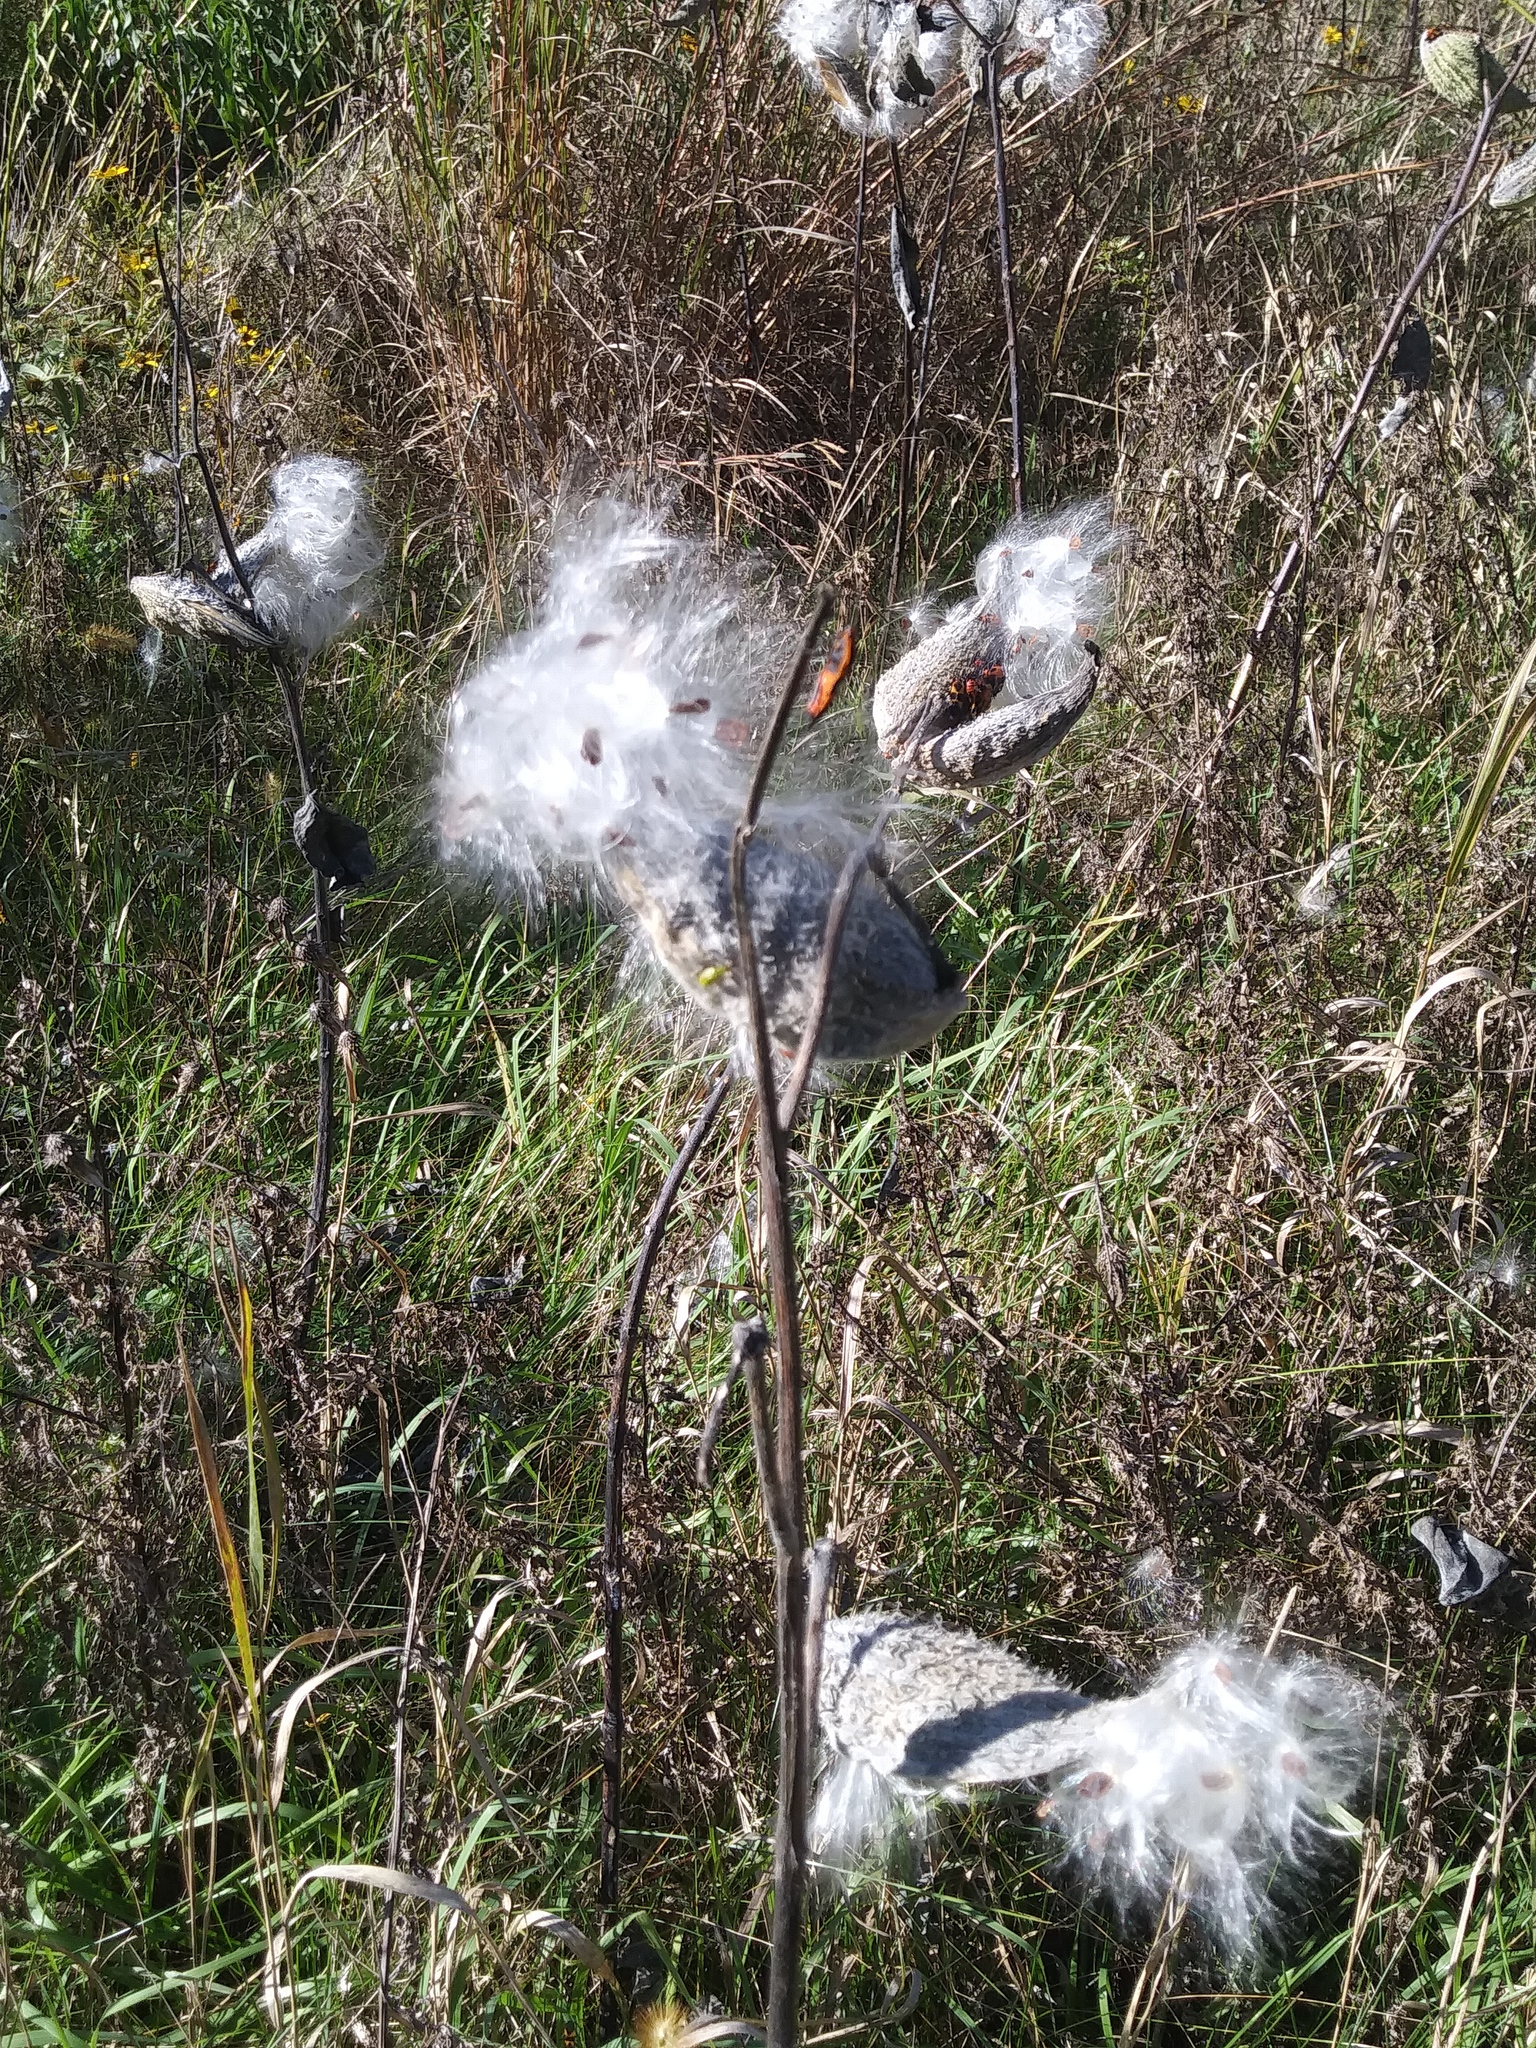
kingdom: Plantae
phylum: Tracheophyta
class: Magnoliopsida
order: Gentianales
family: Apocynaceae
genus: Asclepias
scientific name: Asclepias syriaca
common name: Common milkweed
